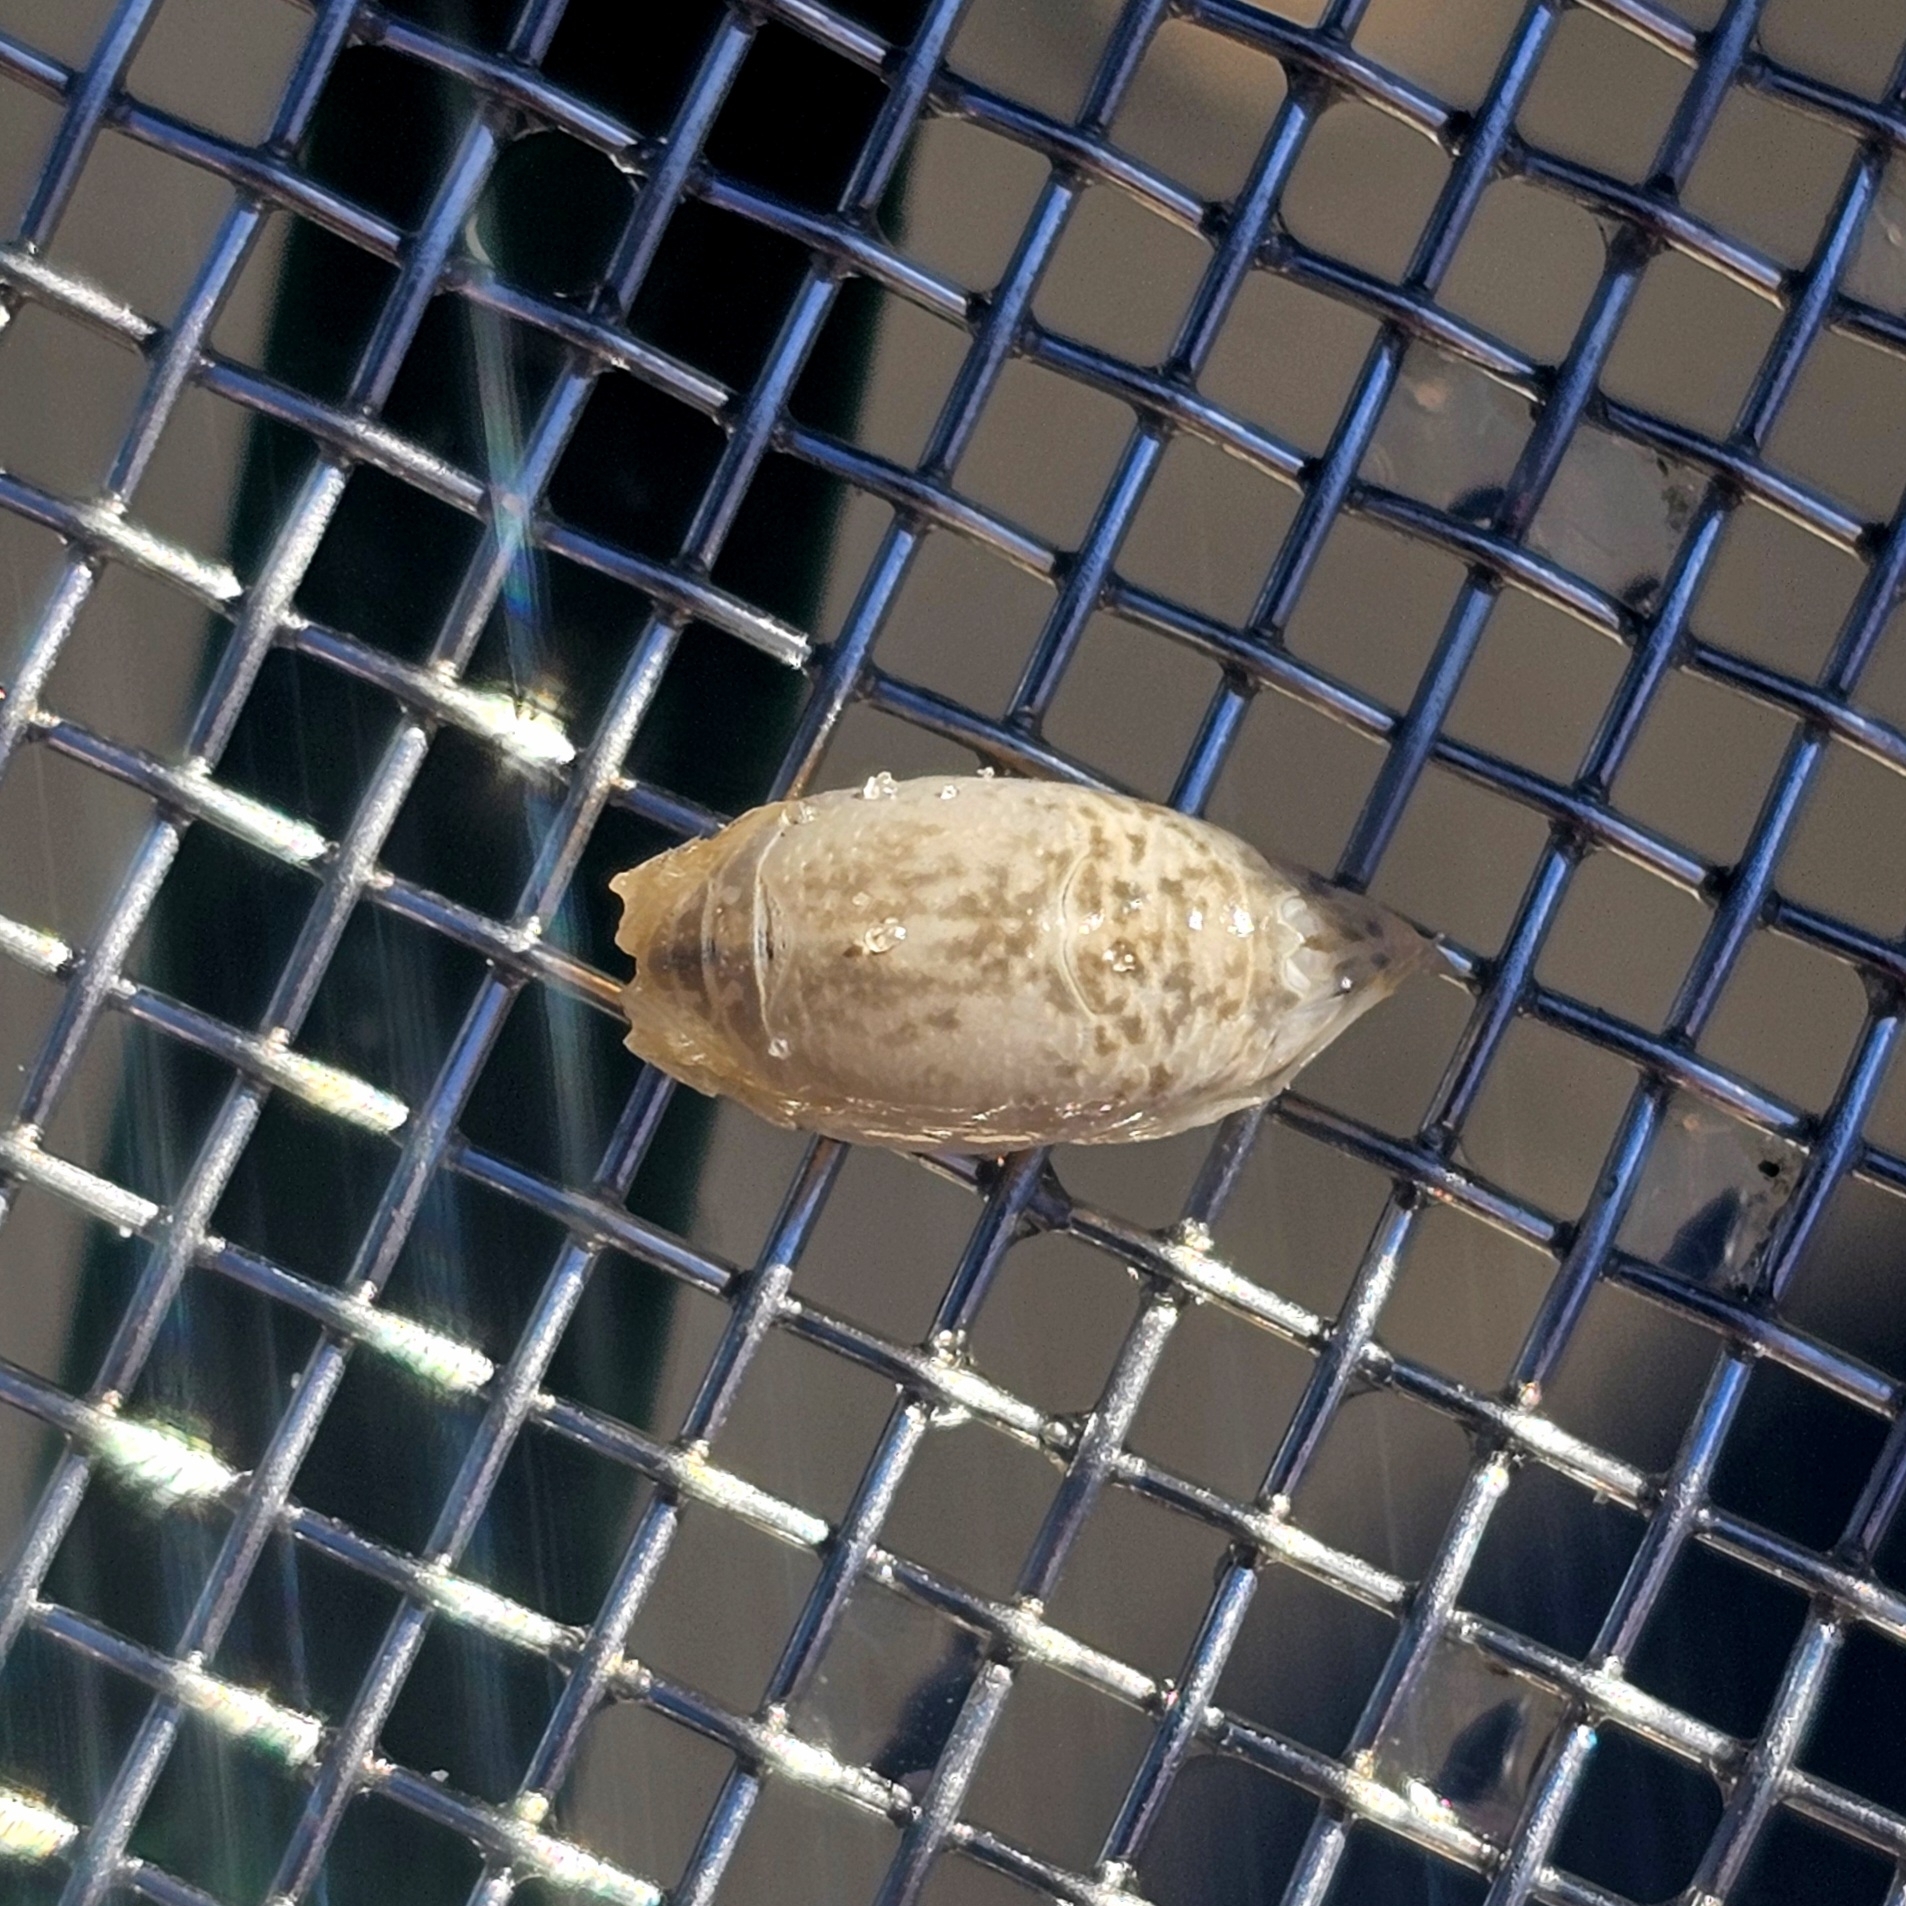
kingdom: Animalia
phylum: Arthropoda
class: Malacostraca
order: Decapoda
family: Hippidae
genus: Emerita
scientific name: Emerita talpoida
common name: Atlantic sand crab
